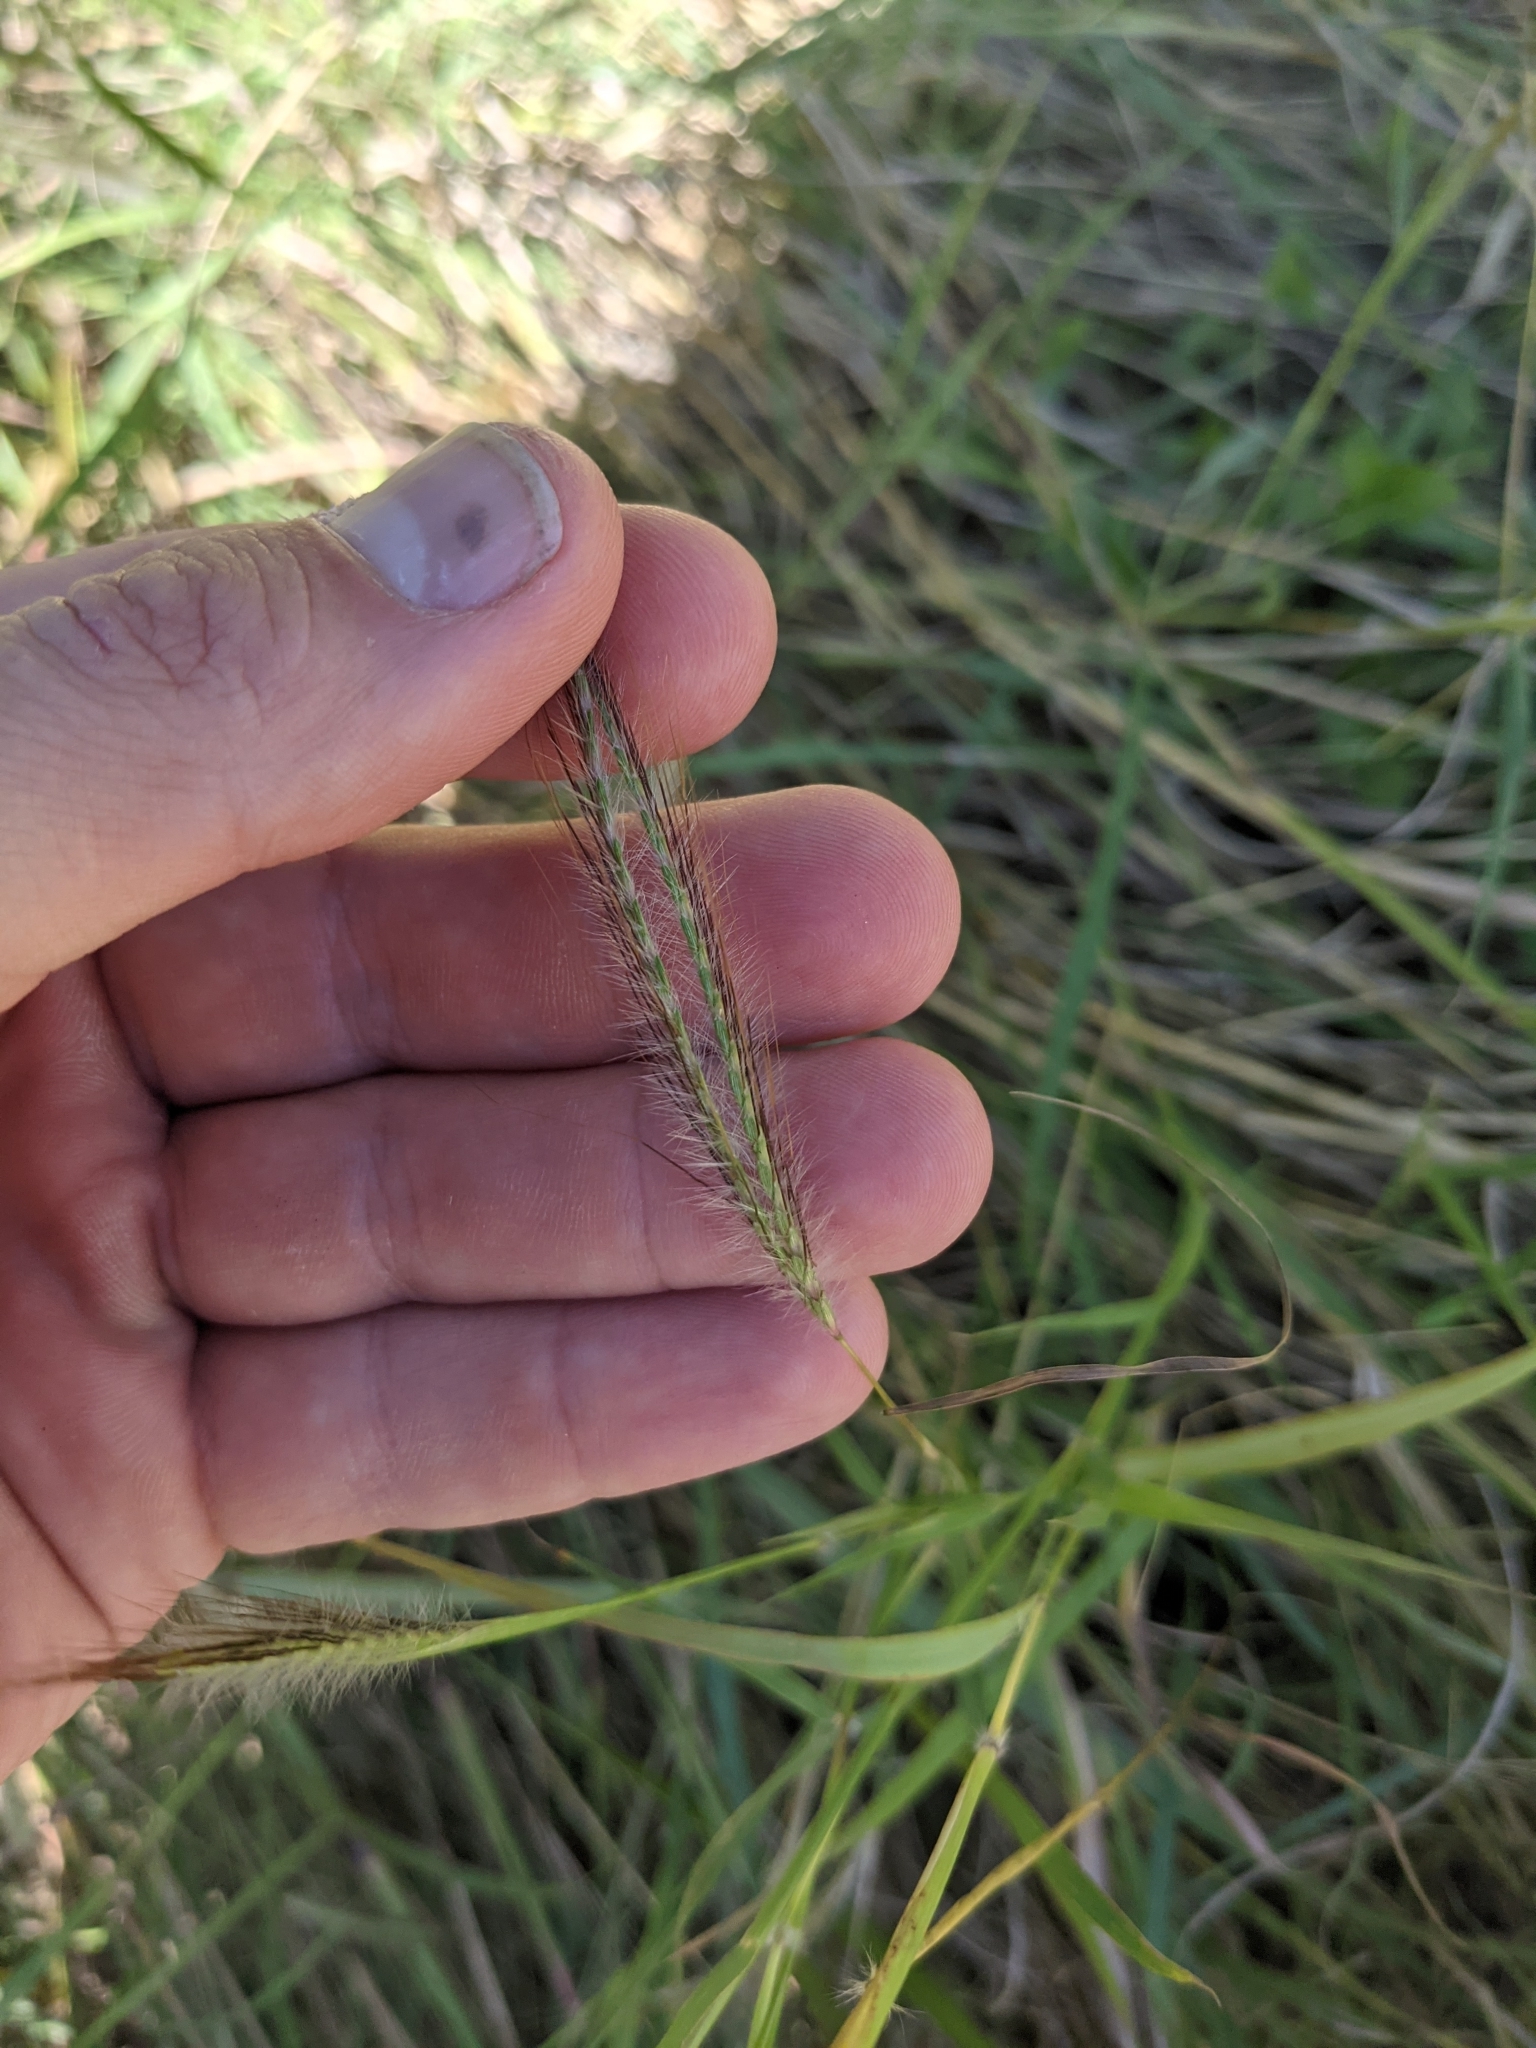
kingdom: Plantae
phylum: Tracheophyta
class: Liliopsida
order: Poales
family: Poaceae
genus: Dichanthium
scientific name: Dichanthium sericeum
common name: Silky bluestem
